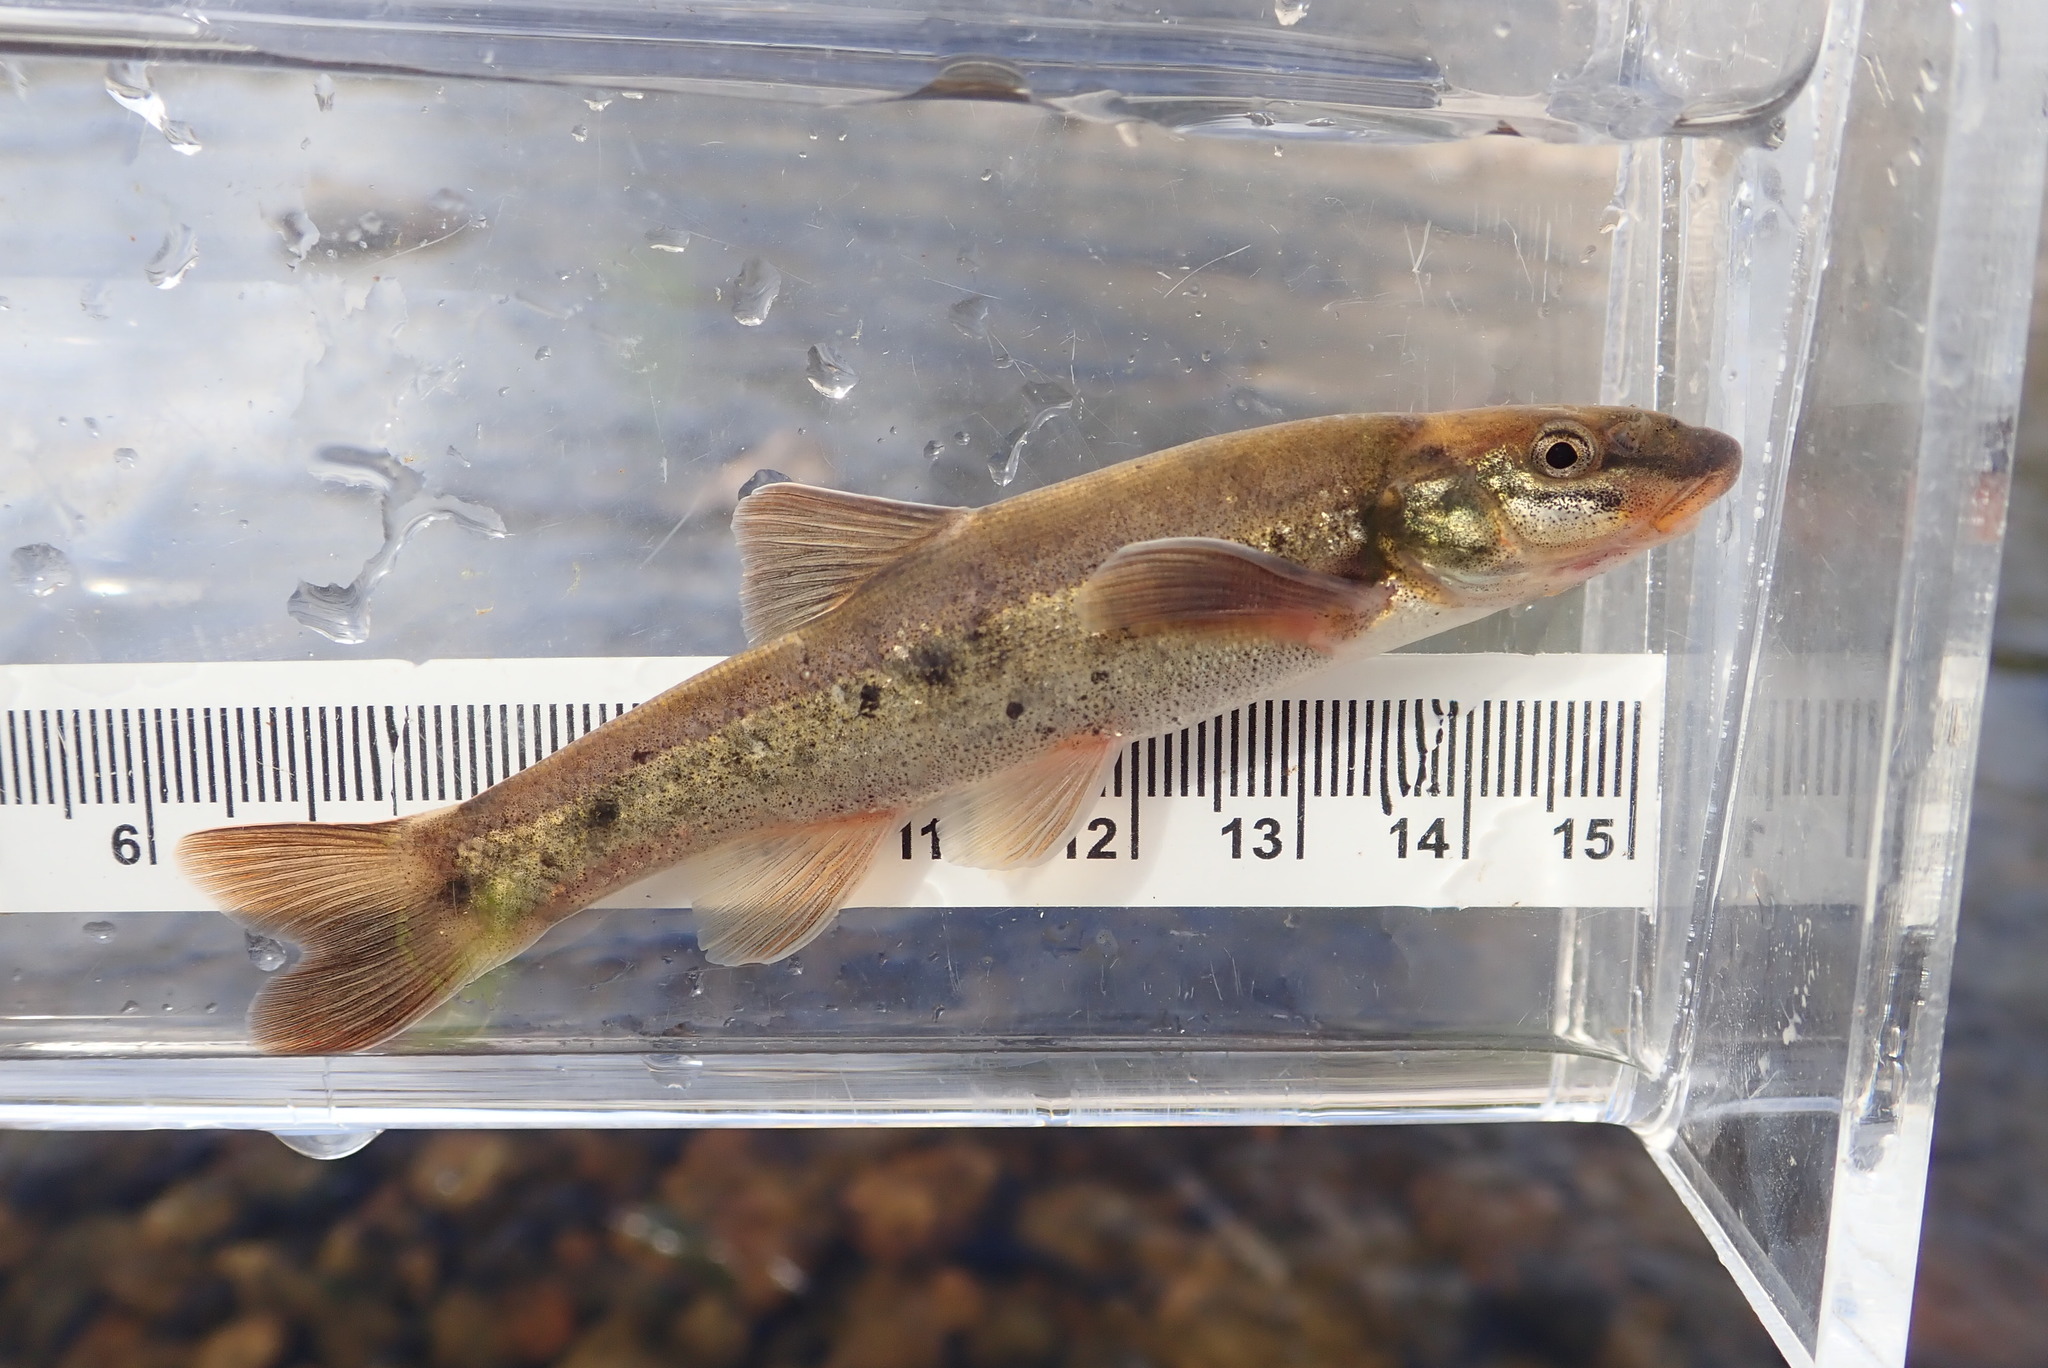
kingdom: Animalia
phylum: Chordata
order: Cypriniformes
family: Cyprinidae
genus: Rhinichthys
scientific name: Rhinichthys cataractae
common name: Longnose dace
